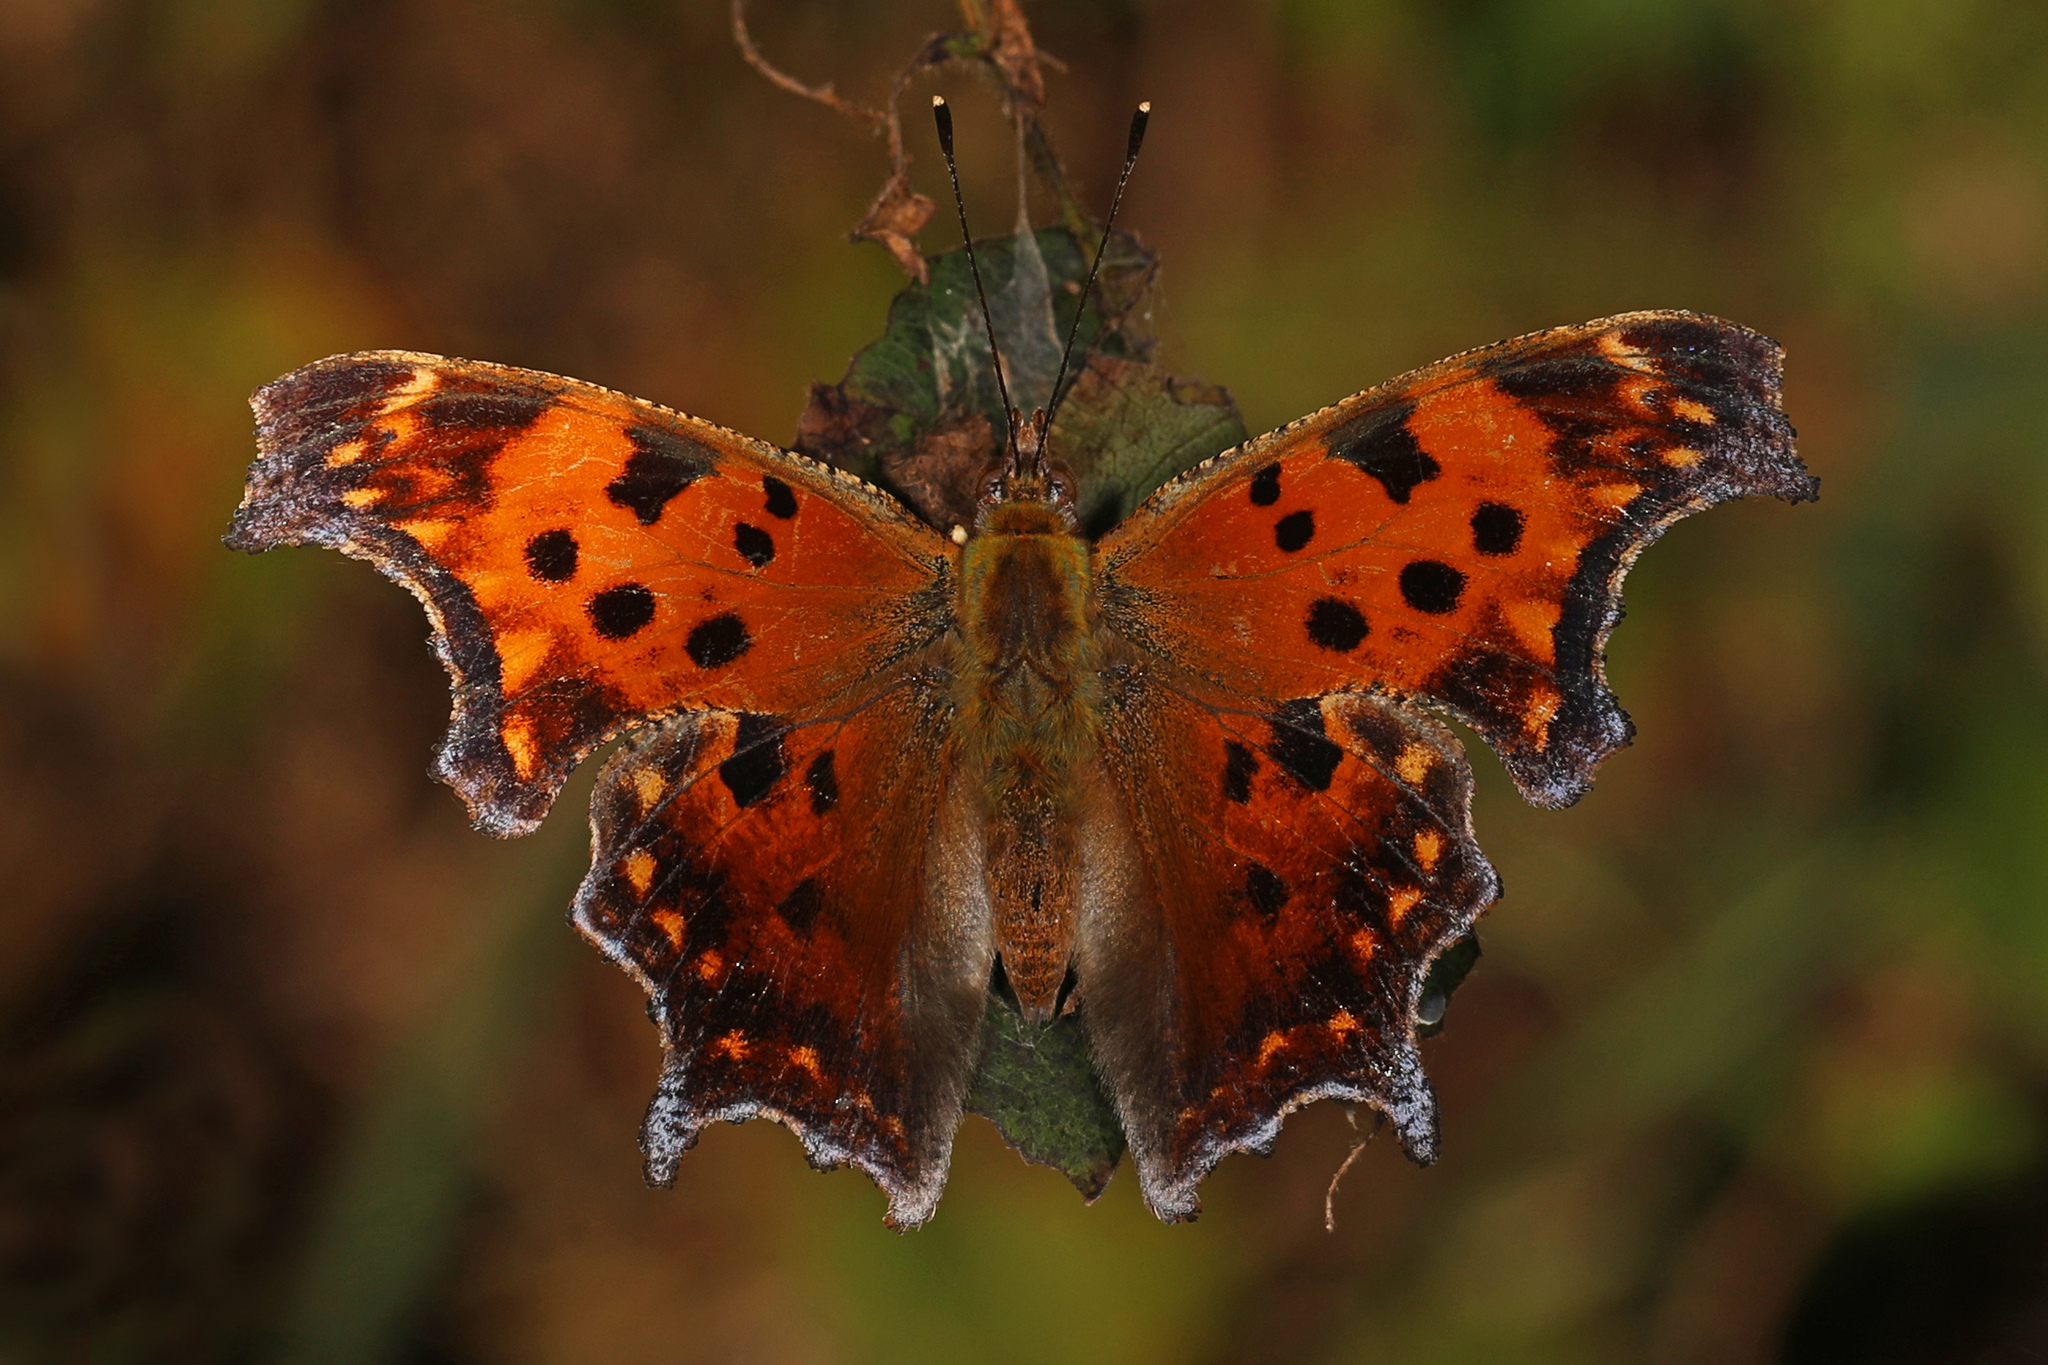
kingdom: Animalia
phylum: Arthropoda
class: Insecta
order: Lepidoptera
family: Nymphalidae
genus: Polygonia
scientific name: Polygonia comma
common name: Eastern comma
